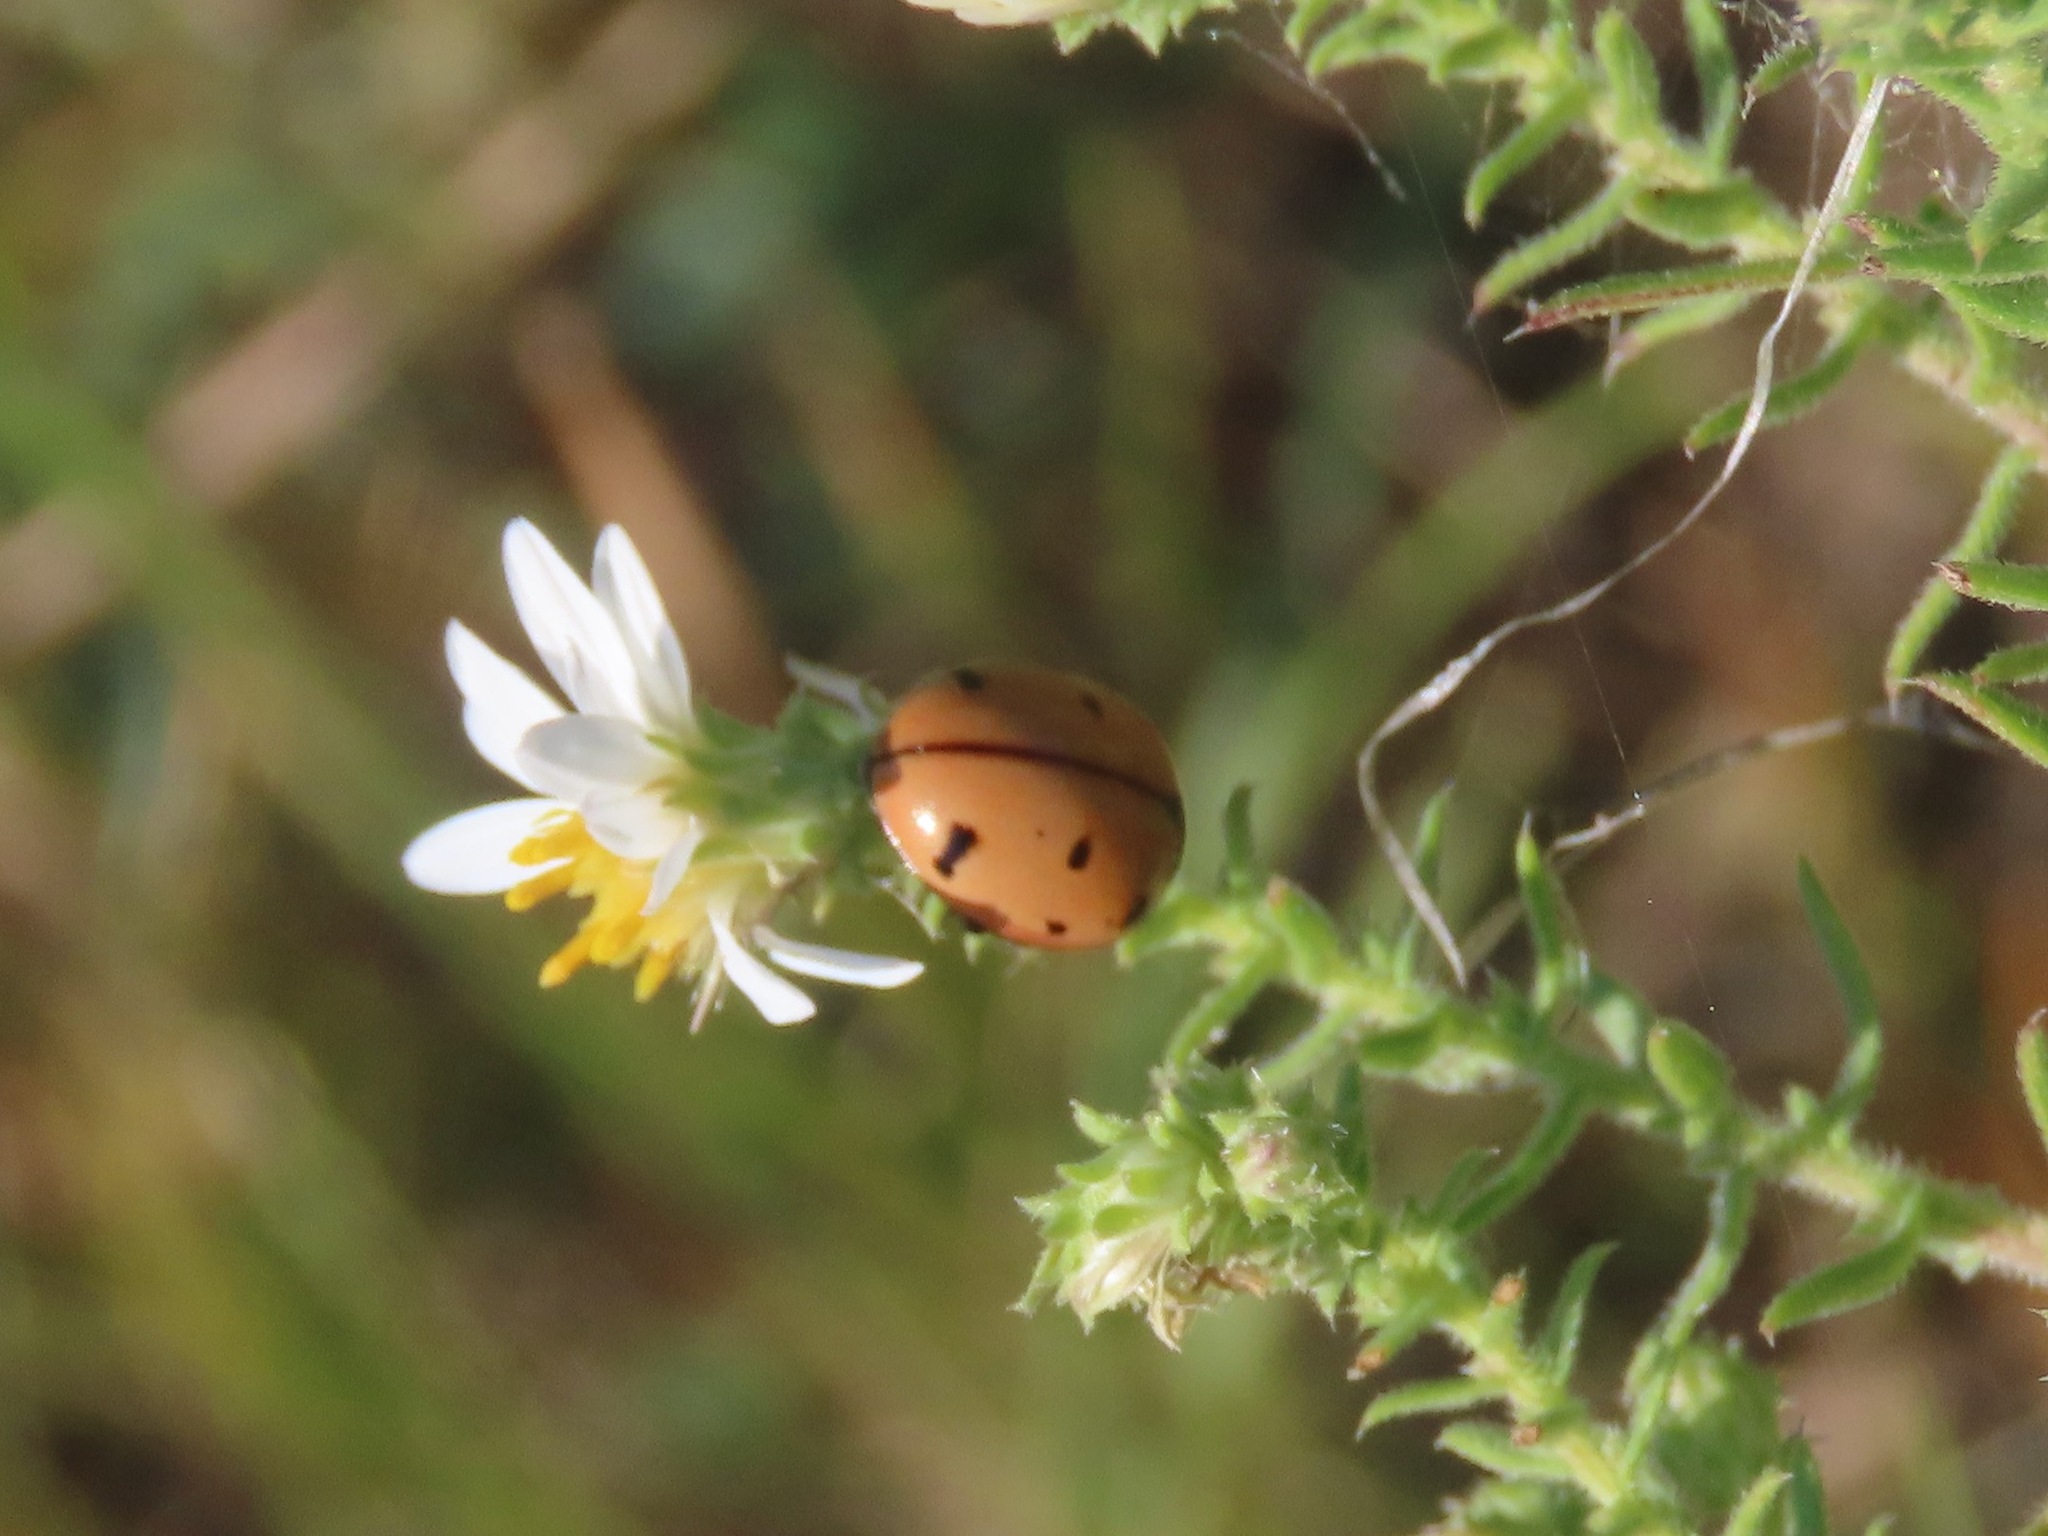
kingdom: Animalia
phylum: Arthropoda
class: Insecta
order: Coleoptera
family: Coccinellidae
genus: Coccinella
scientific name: Coccinella novemnotata
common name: Nine-spotted lady beetle
